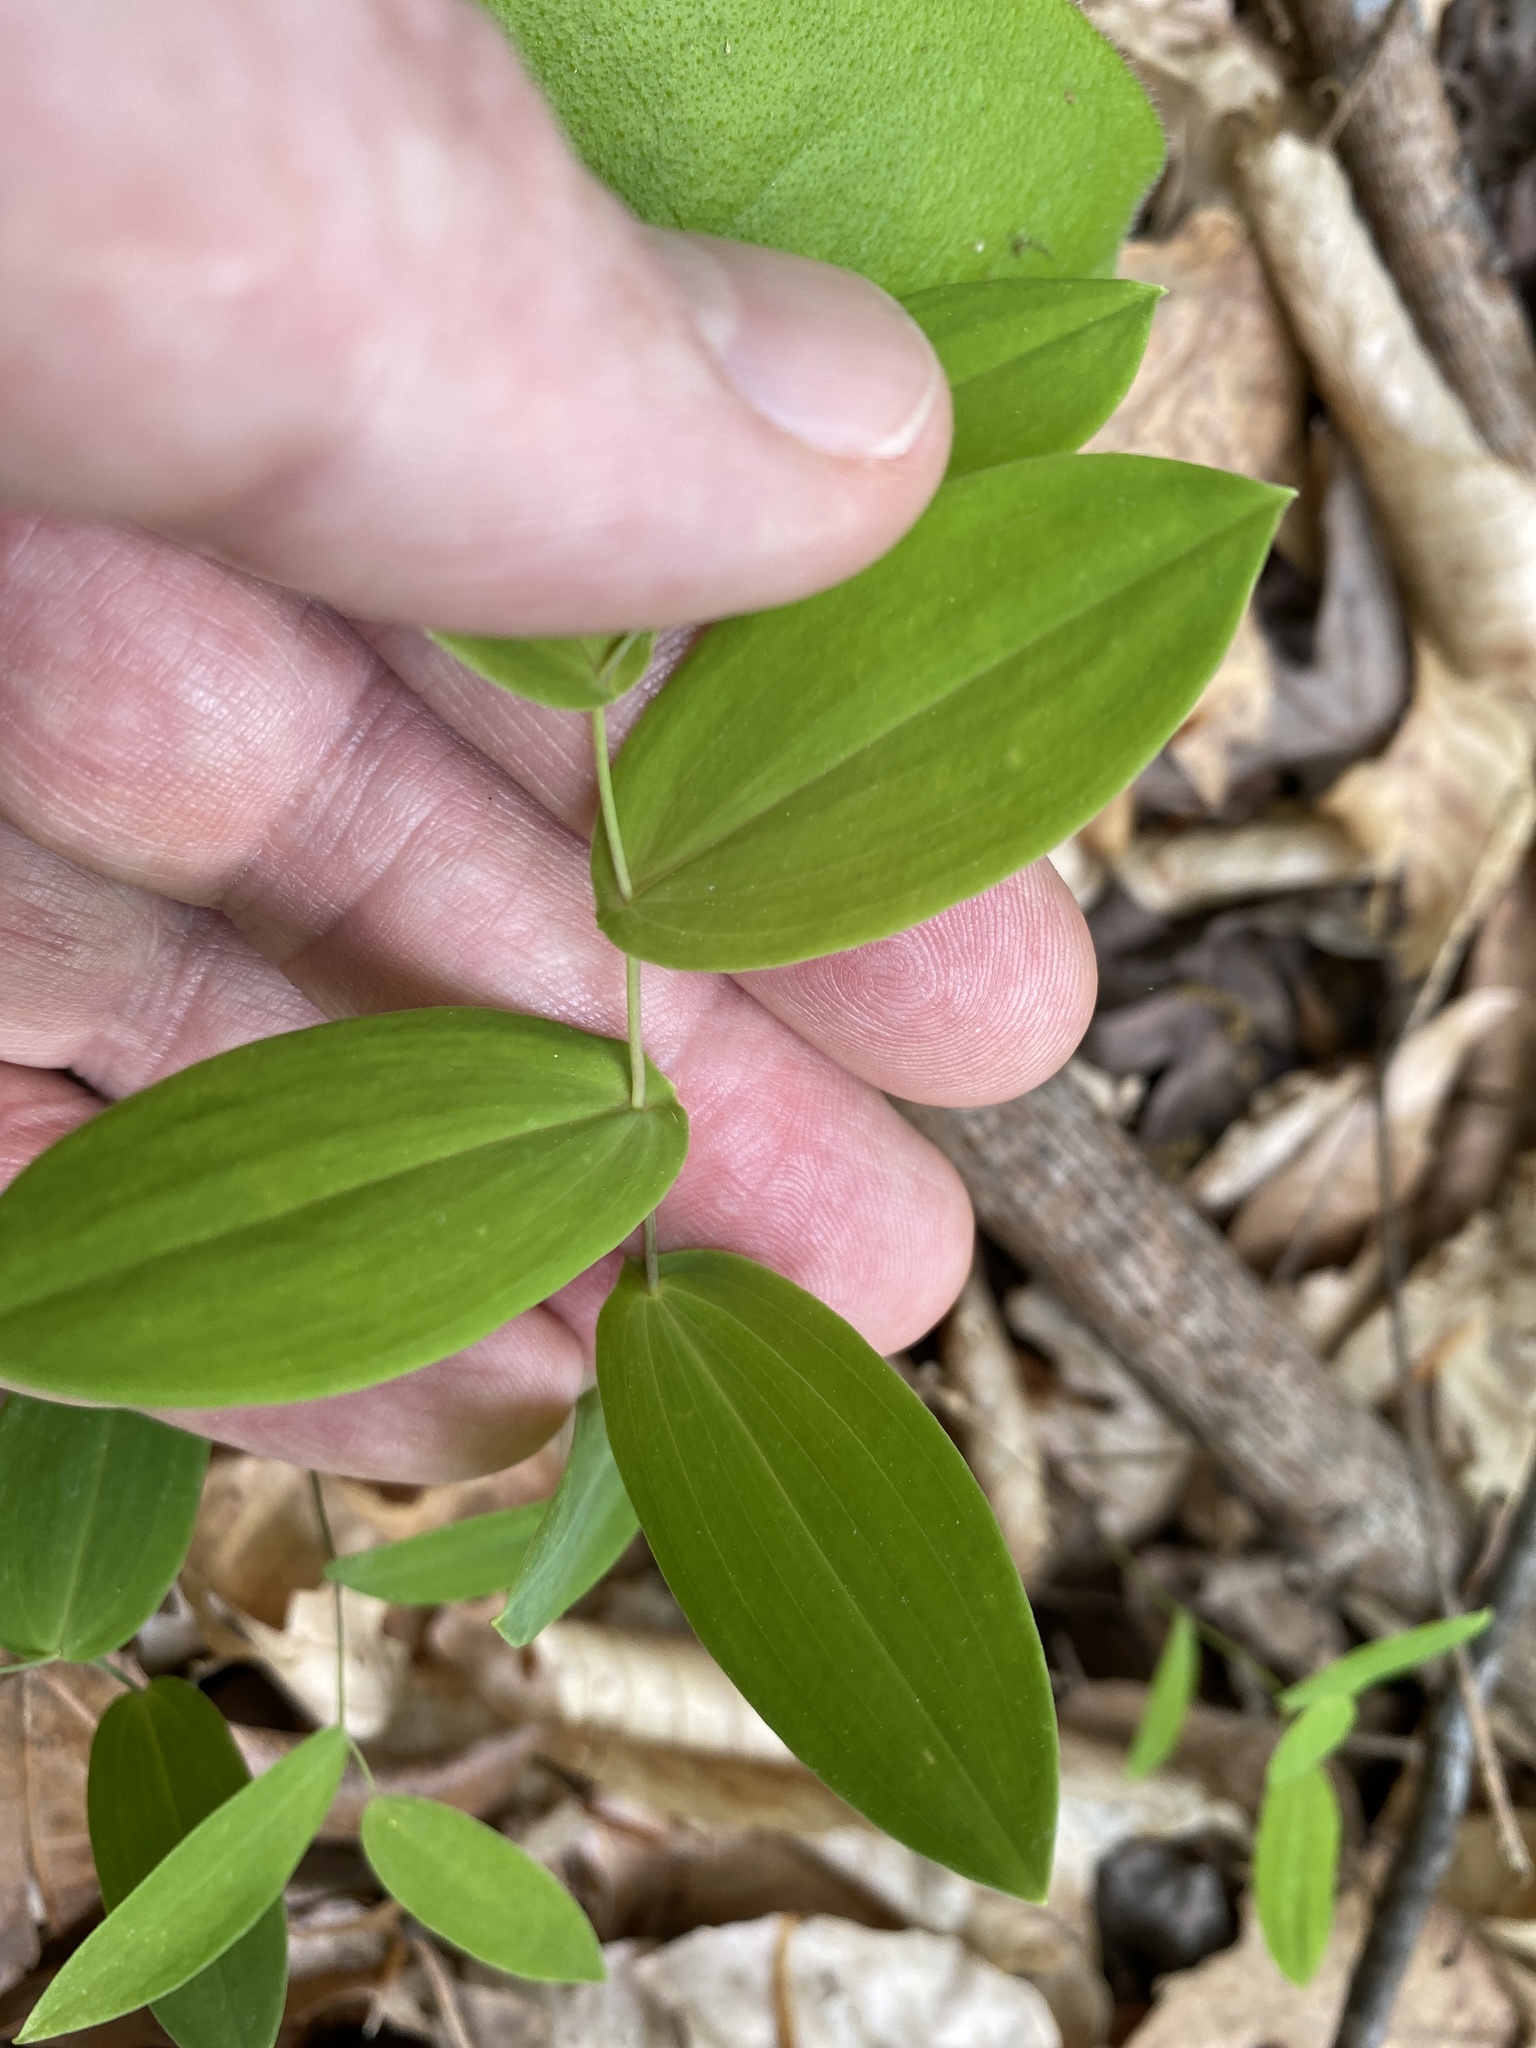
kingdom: Plantae
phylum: Tracheophyta
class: Liliopsida
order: Liliales
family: Colchicaceae
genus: Uvularia
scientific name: Uvularia perfoliata
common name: Perfoliate bellwort
